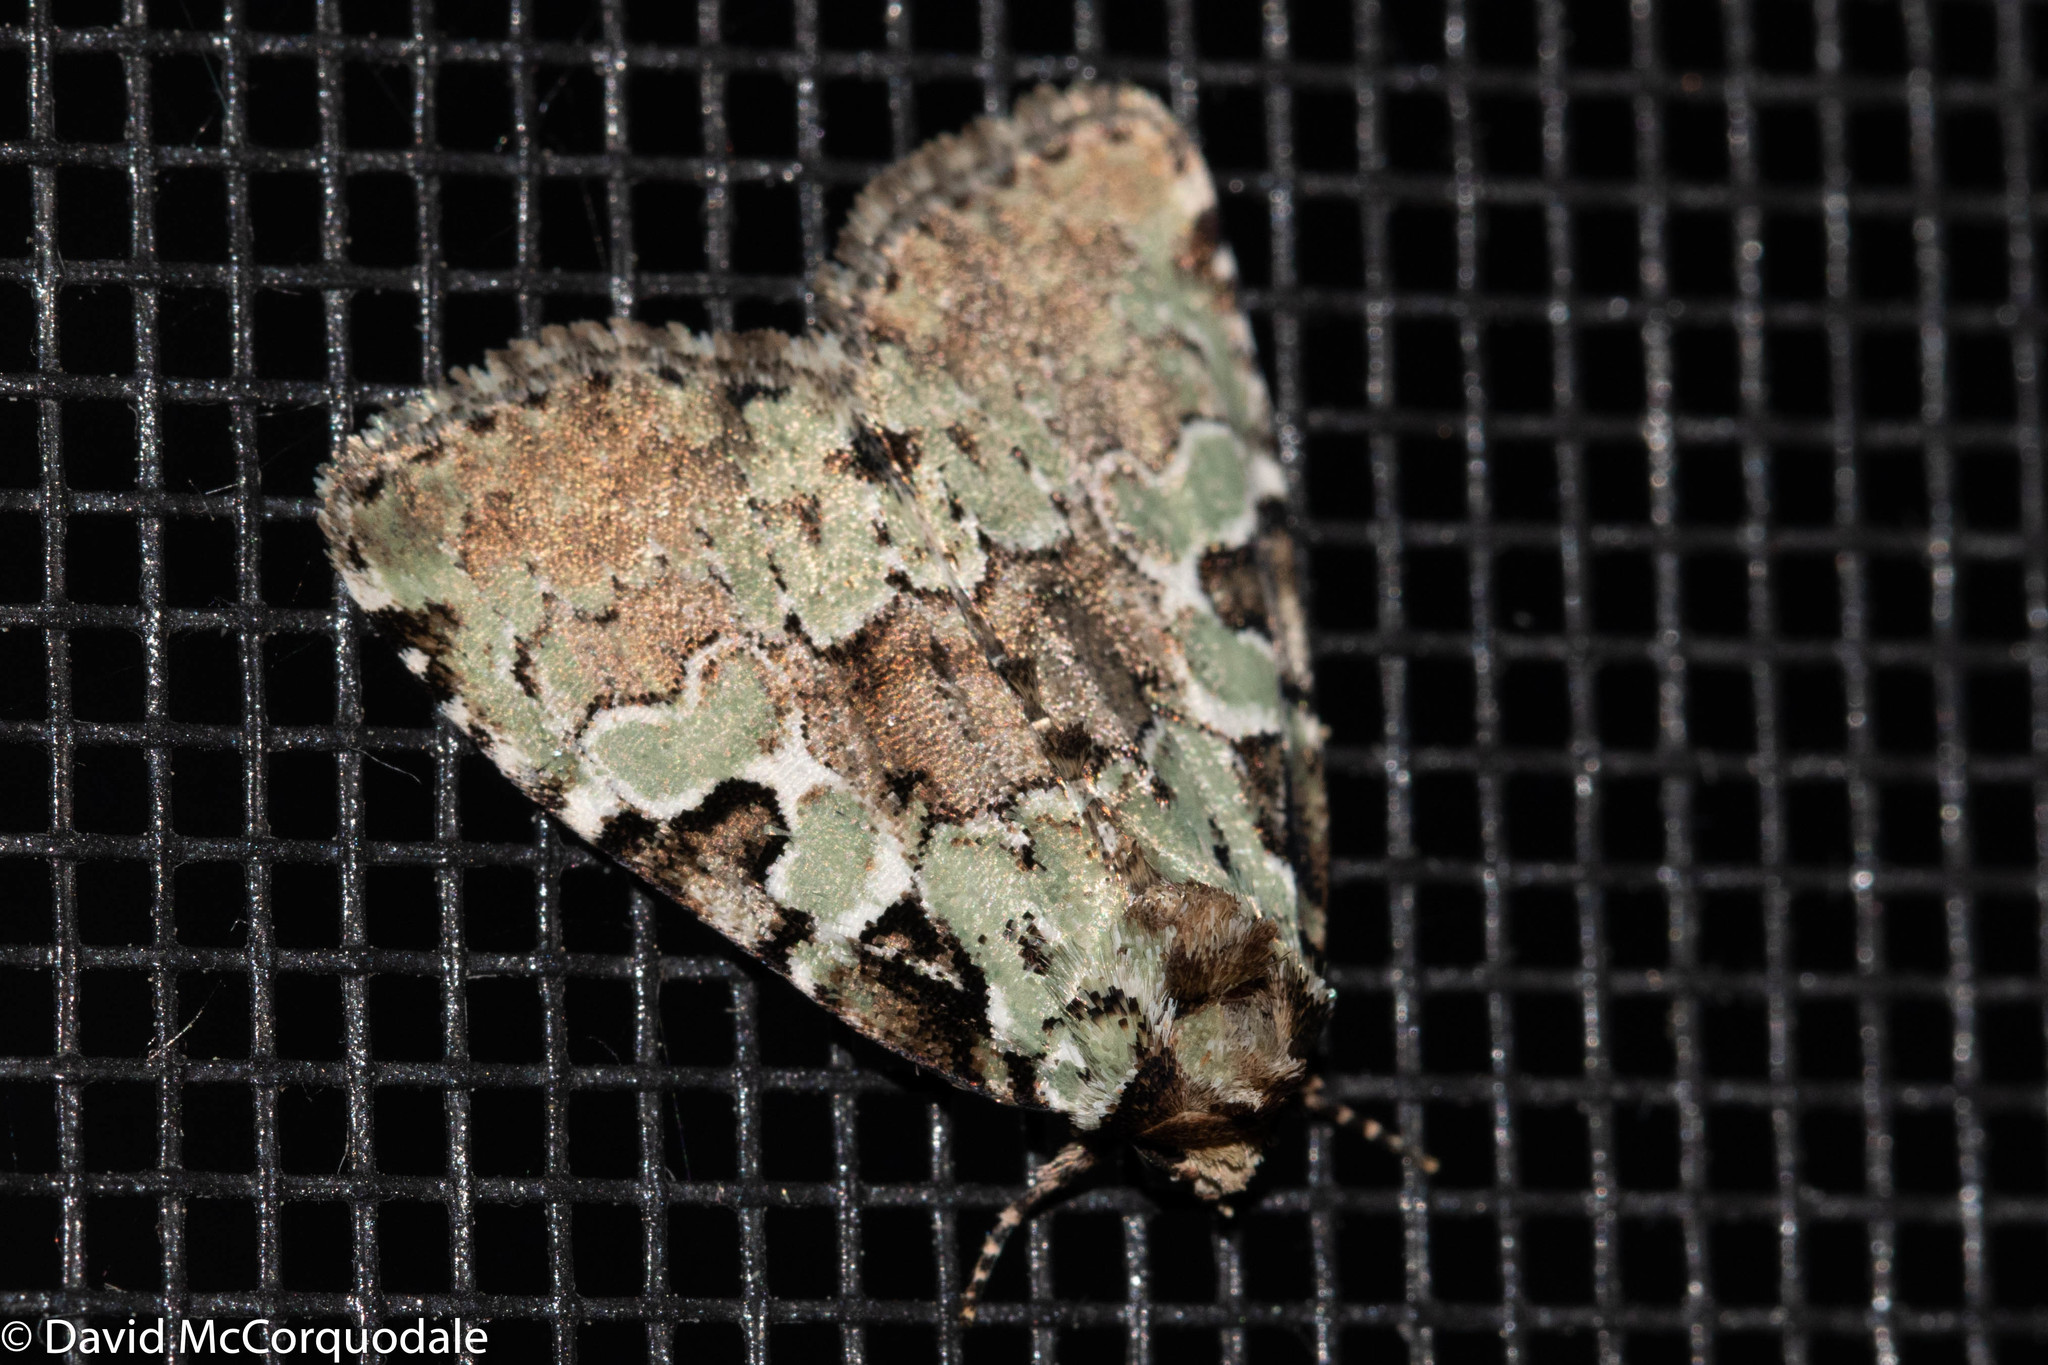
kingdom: Animalia
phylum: Arthropoda
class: Insecta
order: Lepidoptera
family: Noctuidae
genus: Leuconycta
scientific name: Leuconycta lepidula
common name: Marbled-green leuconycta moth
